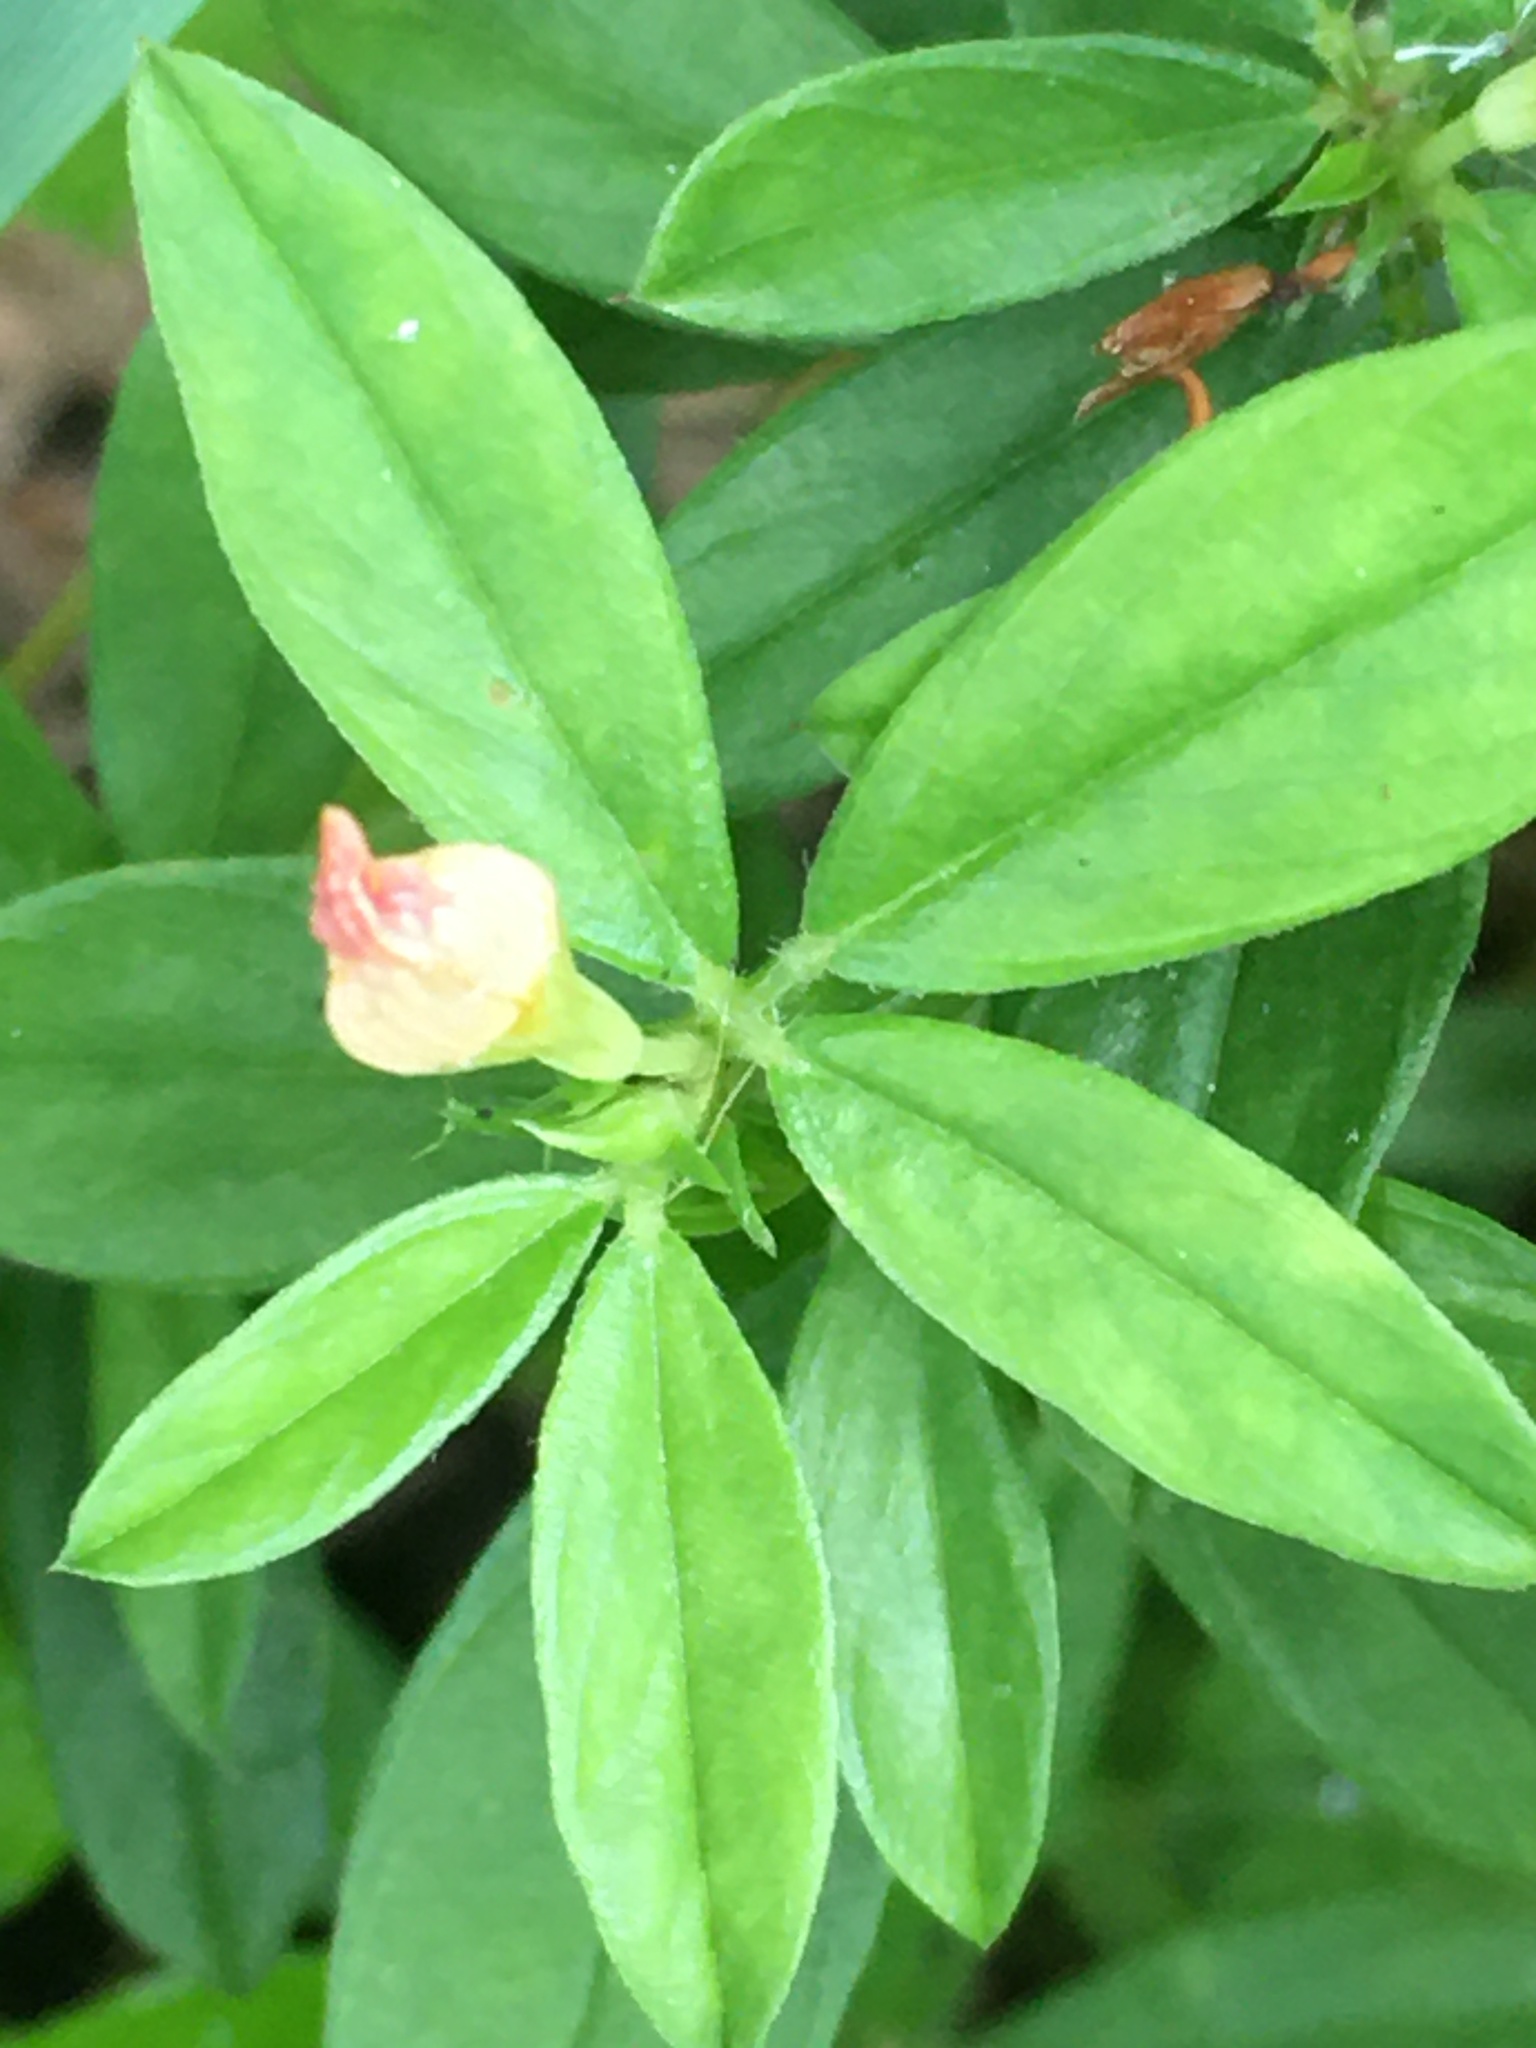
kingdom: Plantae
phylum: Tracheophyta
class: Magnoliopsida
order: Fabales
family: Fabaceae
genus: Stylosanthes
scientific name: Stylosanthes biflora
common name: Two-flower pencil-flower
